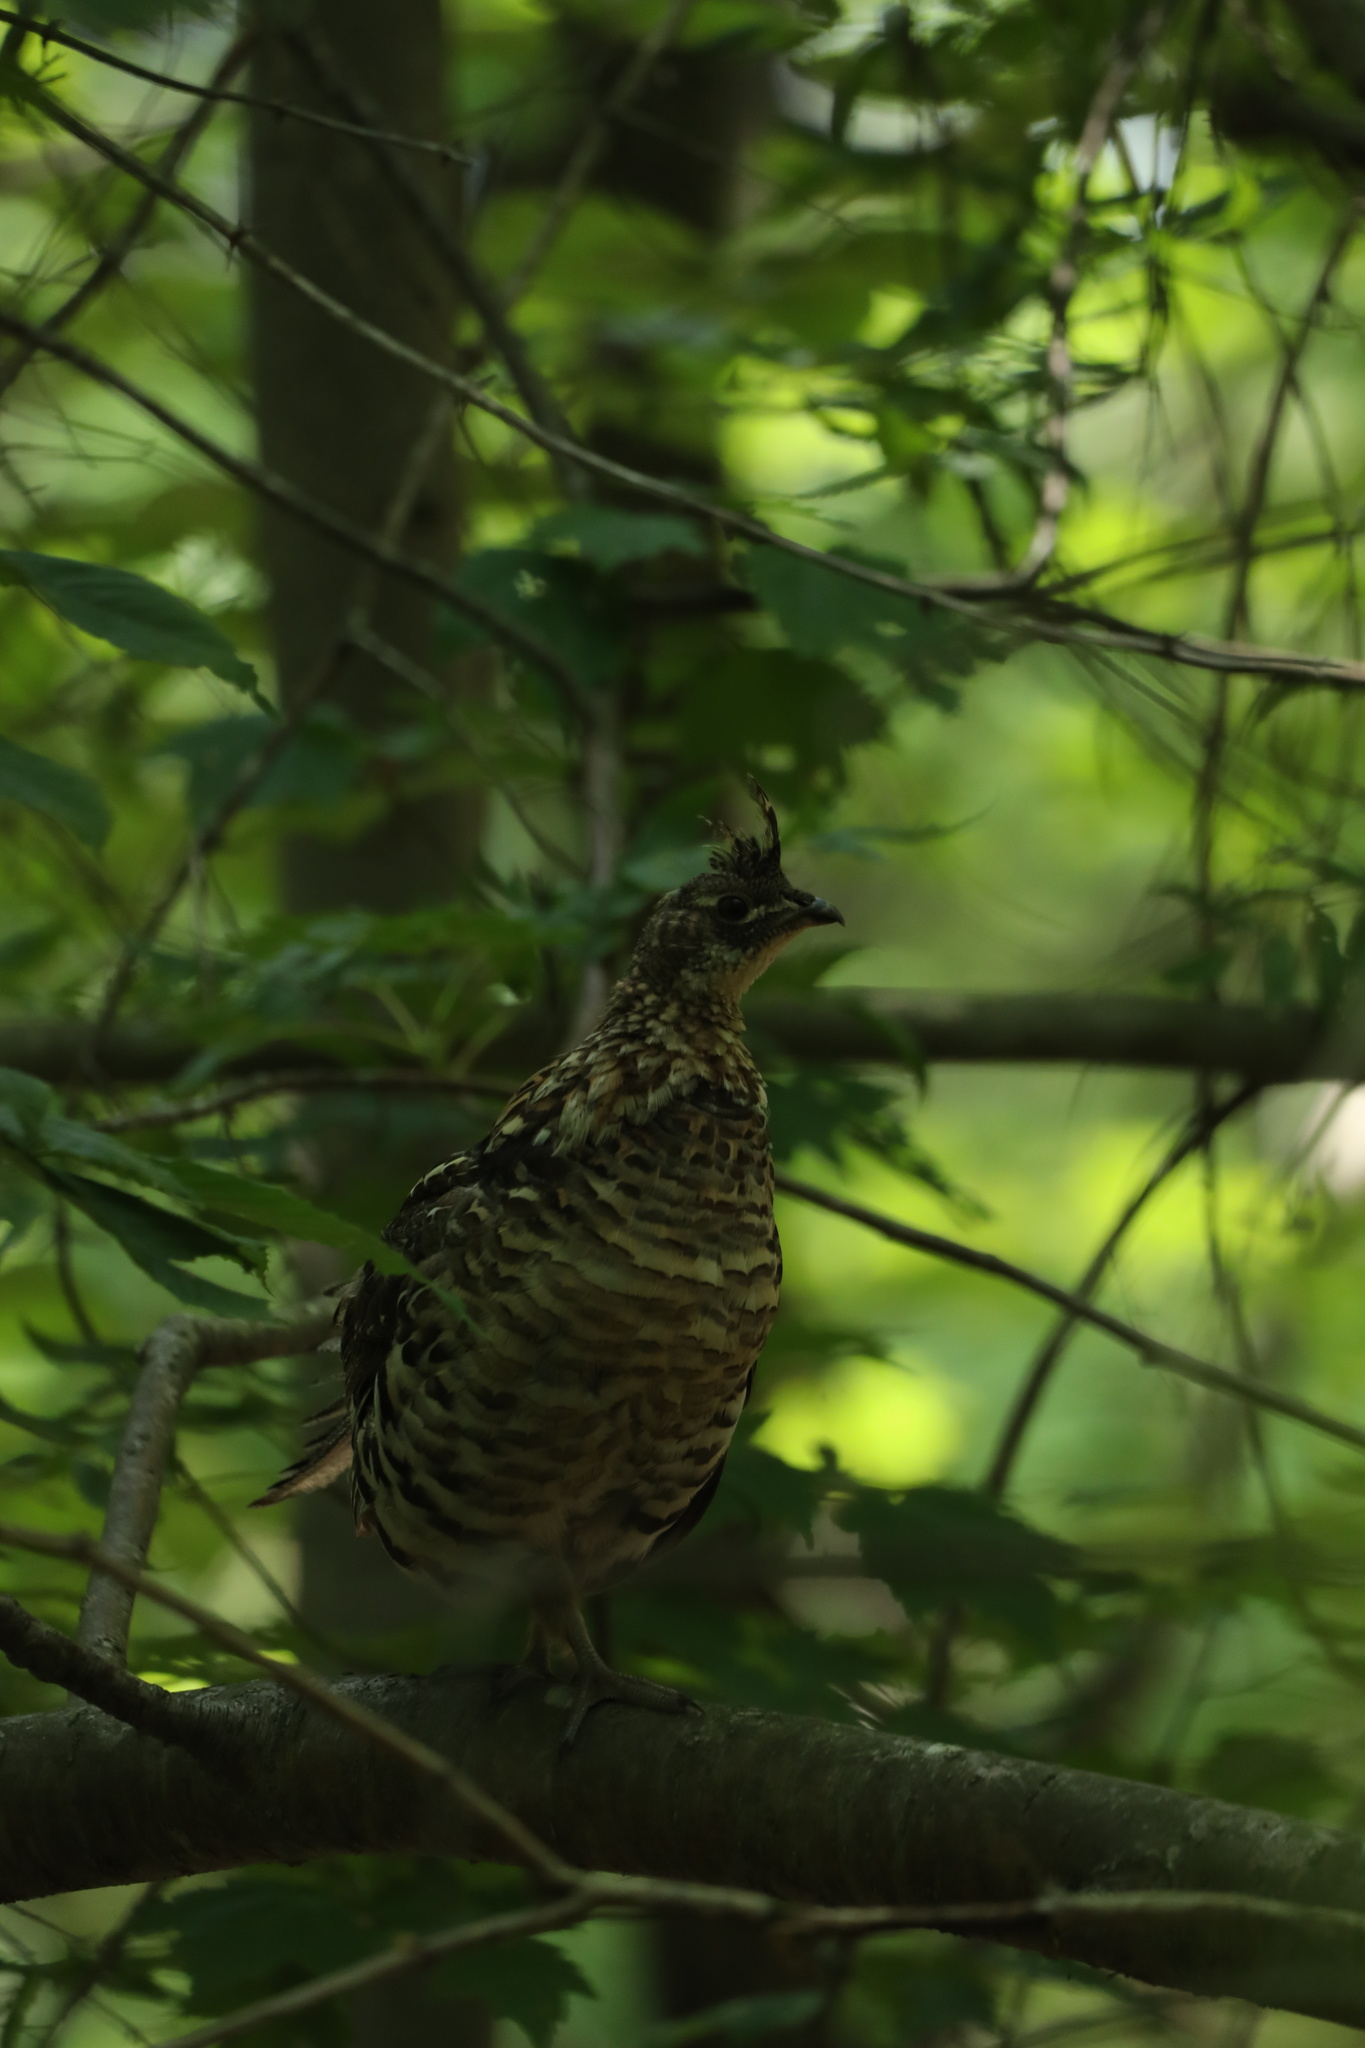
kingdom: Animalia
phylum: Chordata
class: Aves
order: Galliformes
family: Phasianidae
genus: Bonasa
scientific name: Bonasa umbellus
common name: Ruffed grouse
